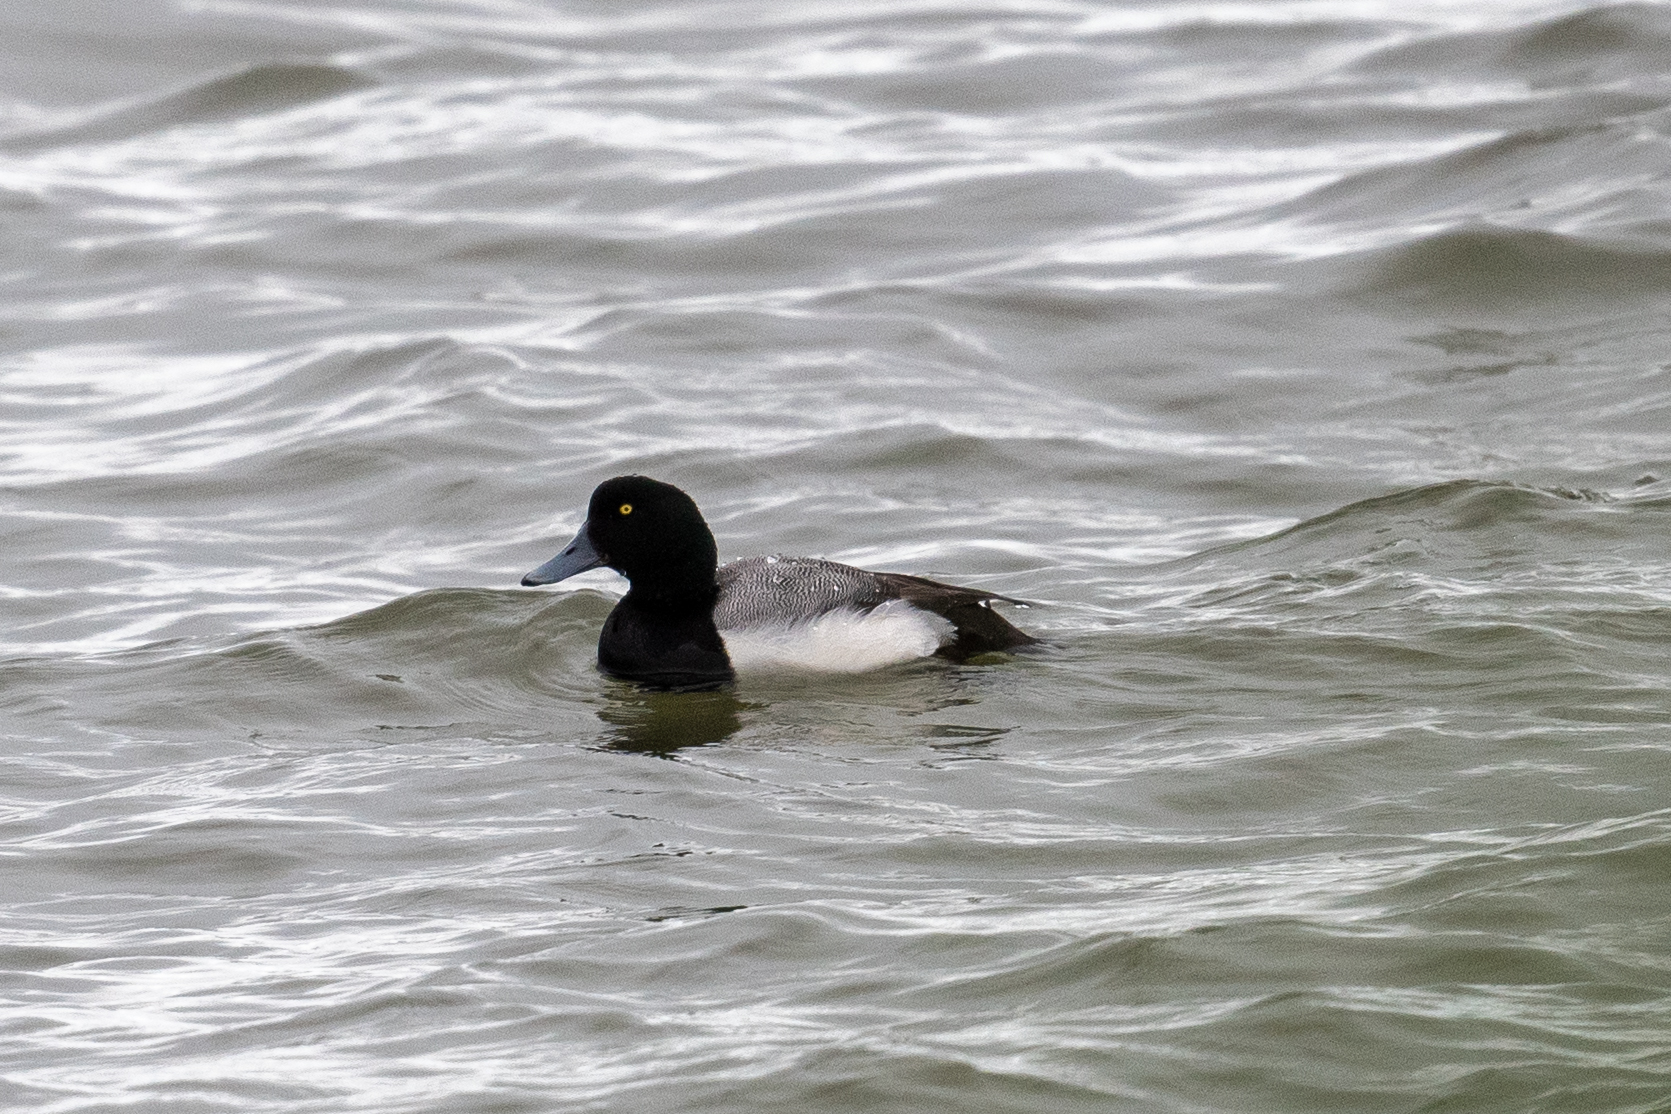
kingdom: Animalia
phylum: Chordata
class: Aves
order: Anseriformes
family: Anatidae
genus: Aythya
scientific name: Aythya marila
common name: Greater scaup
